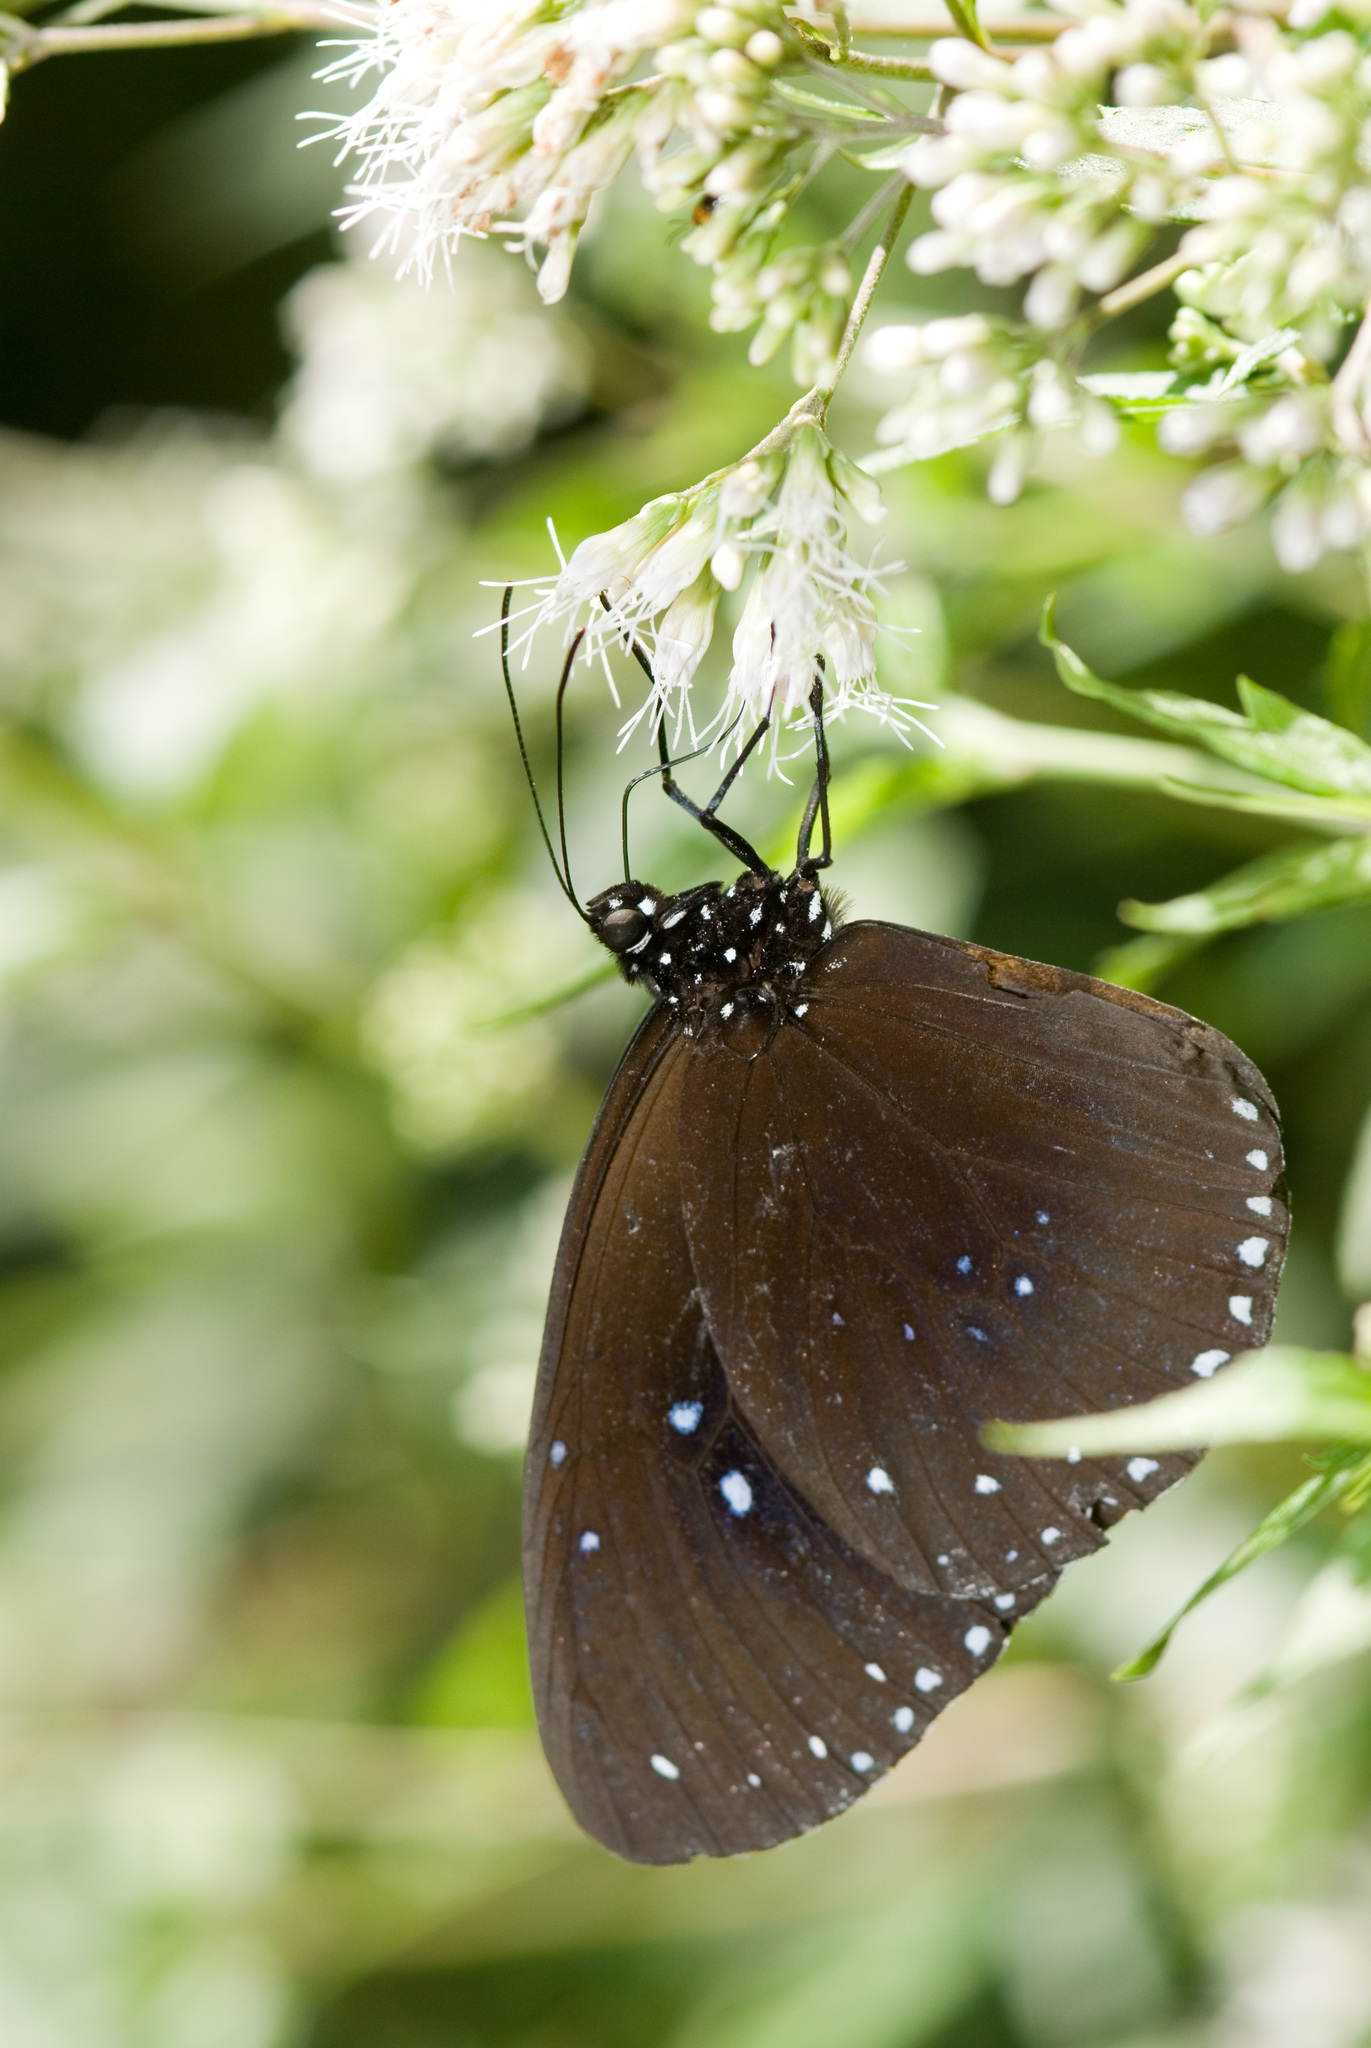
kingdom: Animalia
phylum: Arthropoda
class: Insecta
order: Lepidoptera
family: Nymphalidae
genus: Euploea
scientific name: Euploea sylvester
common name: Double-branded crow butterfly
